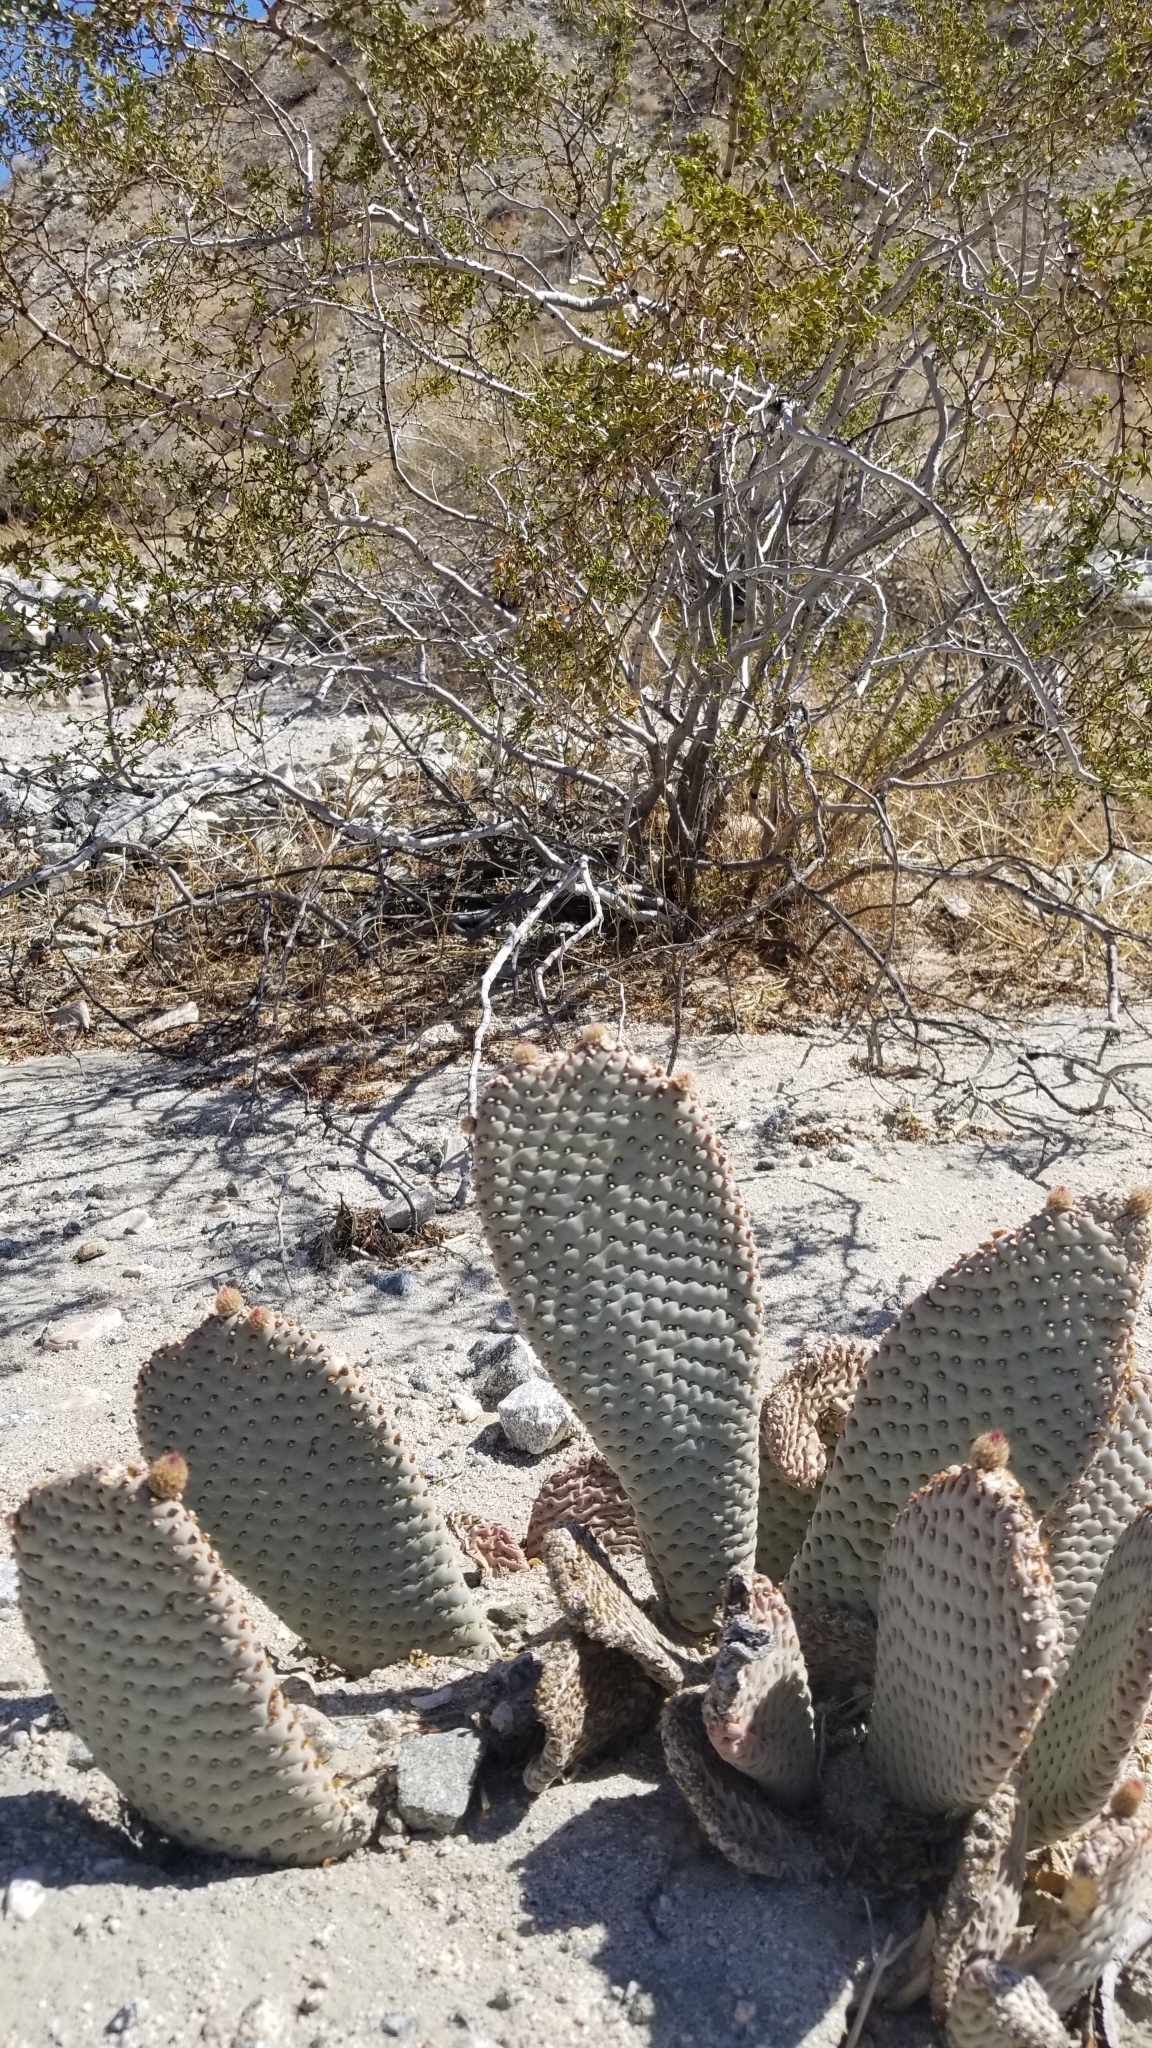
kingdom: Plantae
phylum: Tracheophyta
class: Magnoliopsida
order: Caryophyllales
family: Cactaceae
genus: Opuntia
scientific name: Opuntia basilaris
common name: Beavertail prickly-pear
